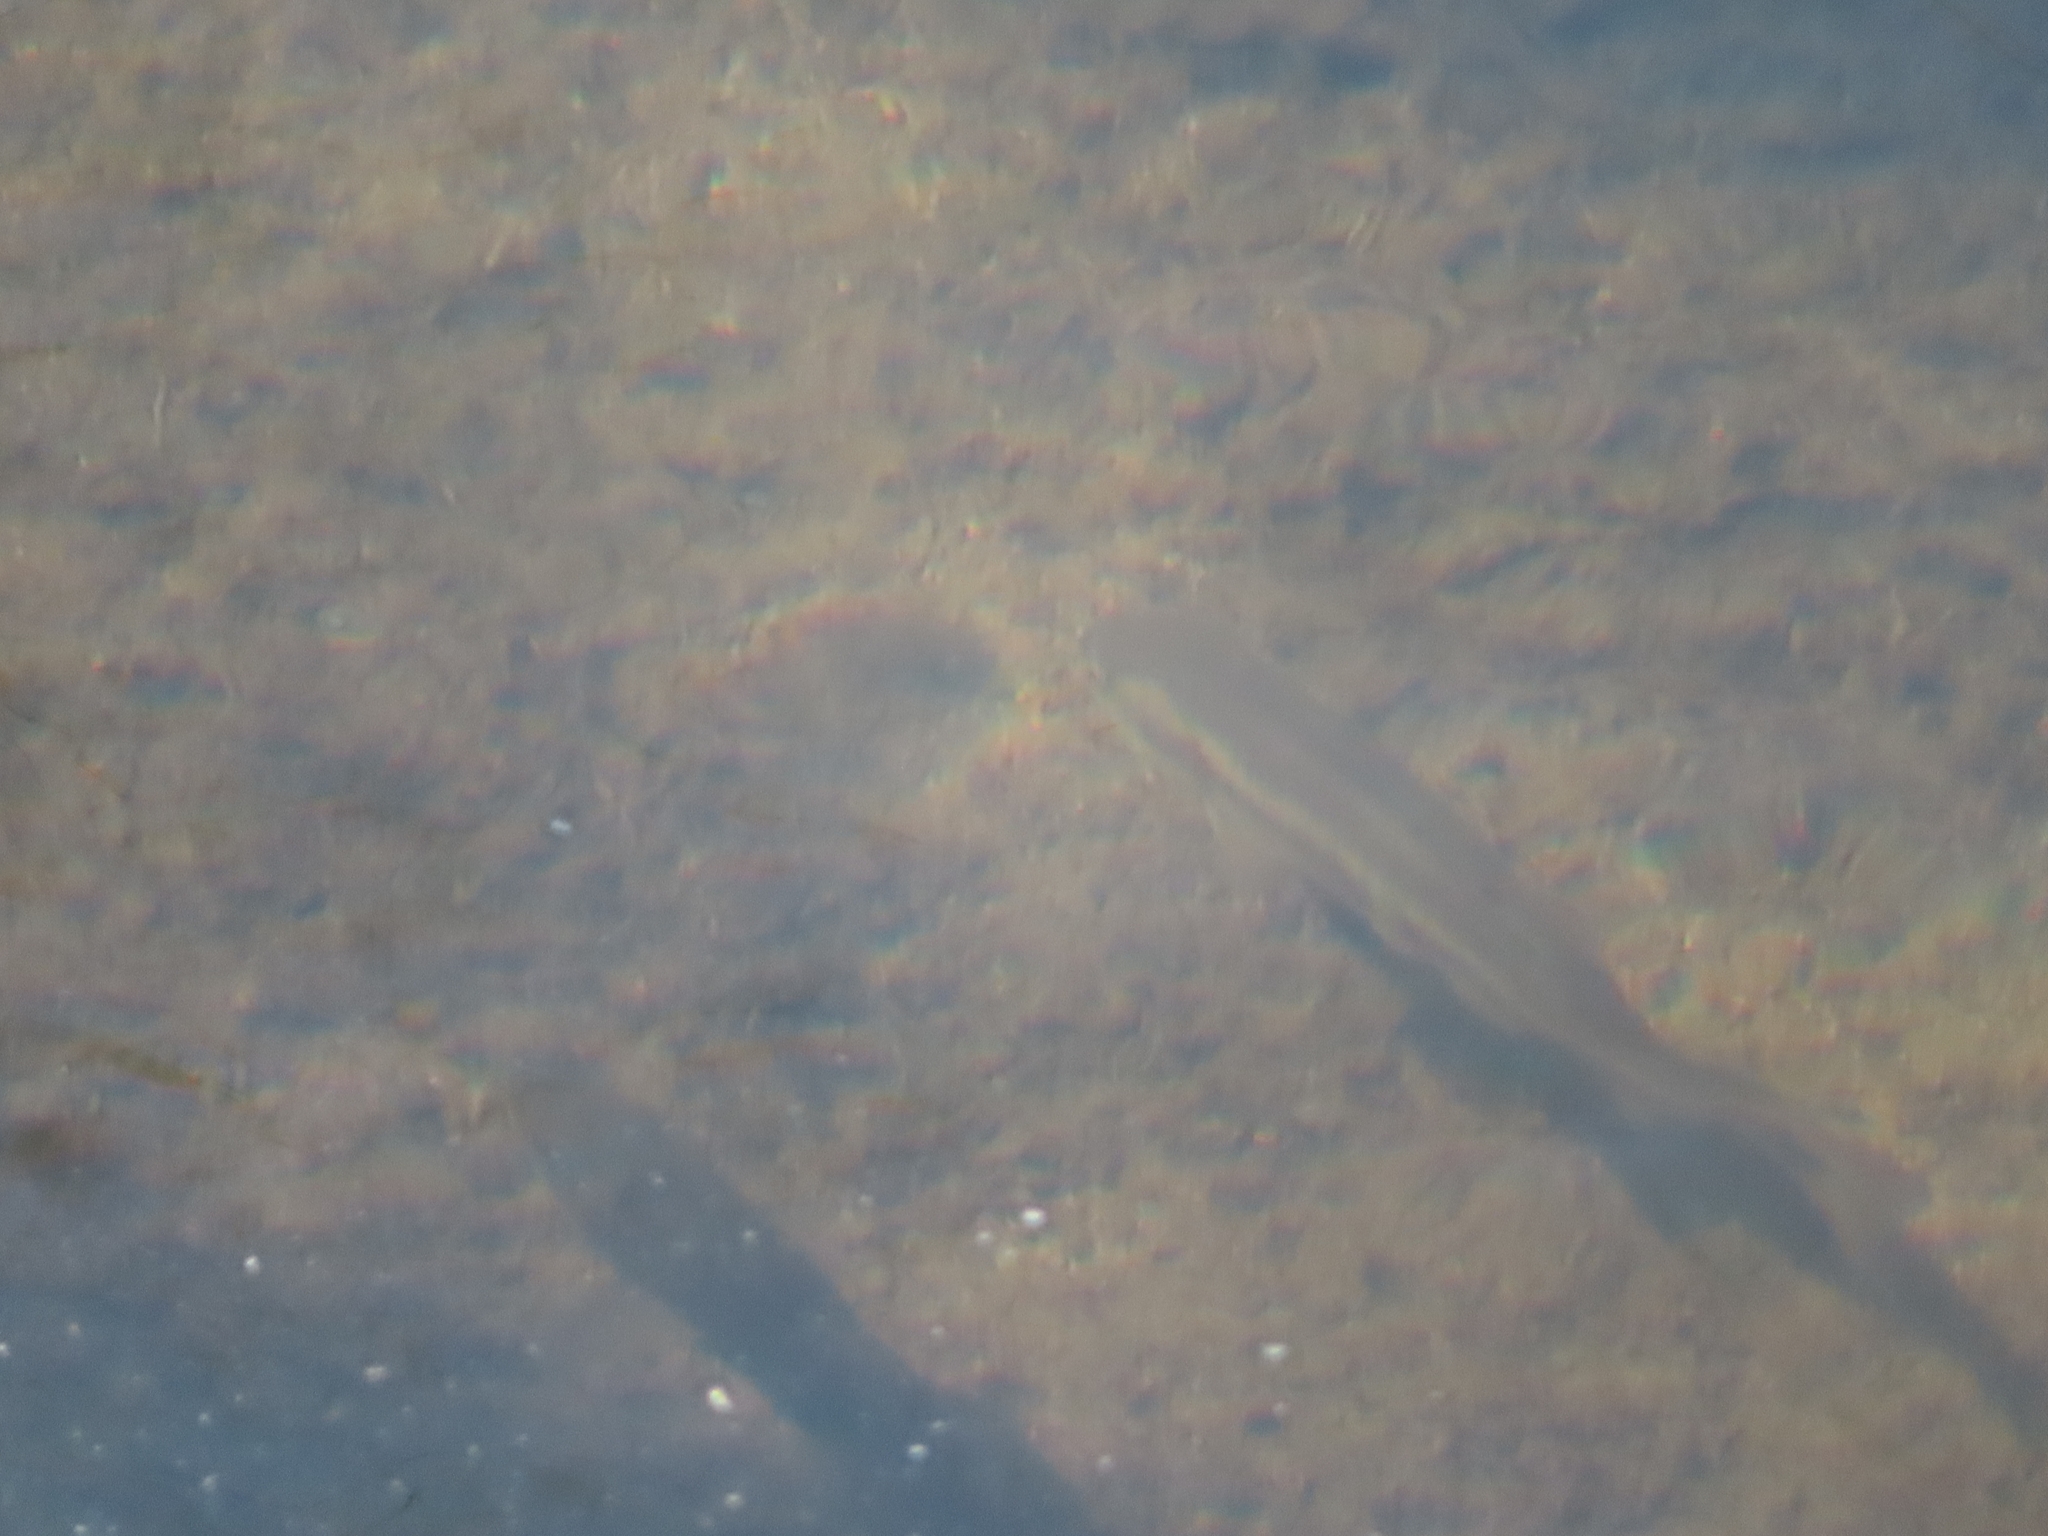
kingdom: Animalia
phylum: Chordata
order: Cypriniformes
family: Cyprinidae
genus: Semotilus
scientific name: Semotilus atromaculatus
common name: Creek chub
